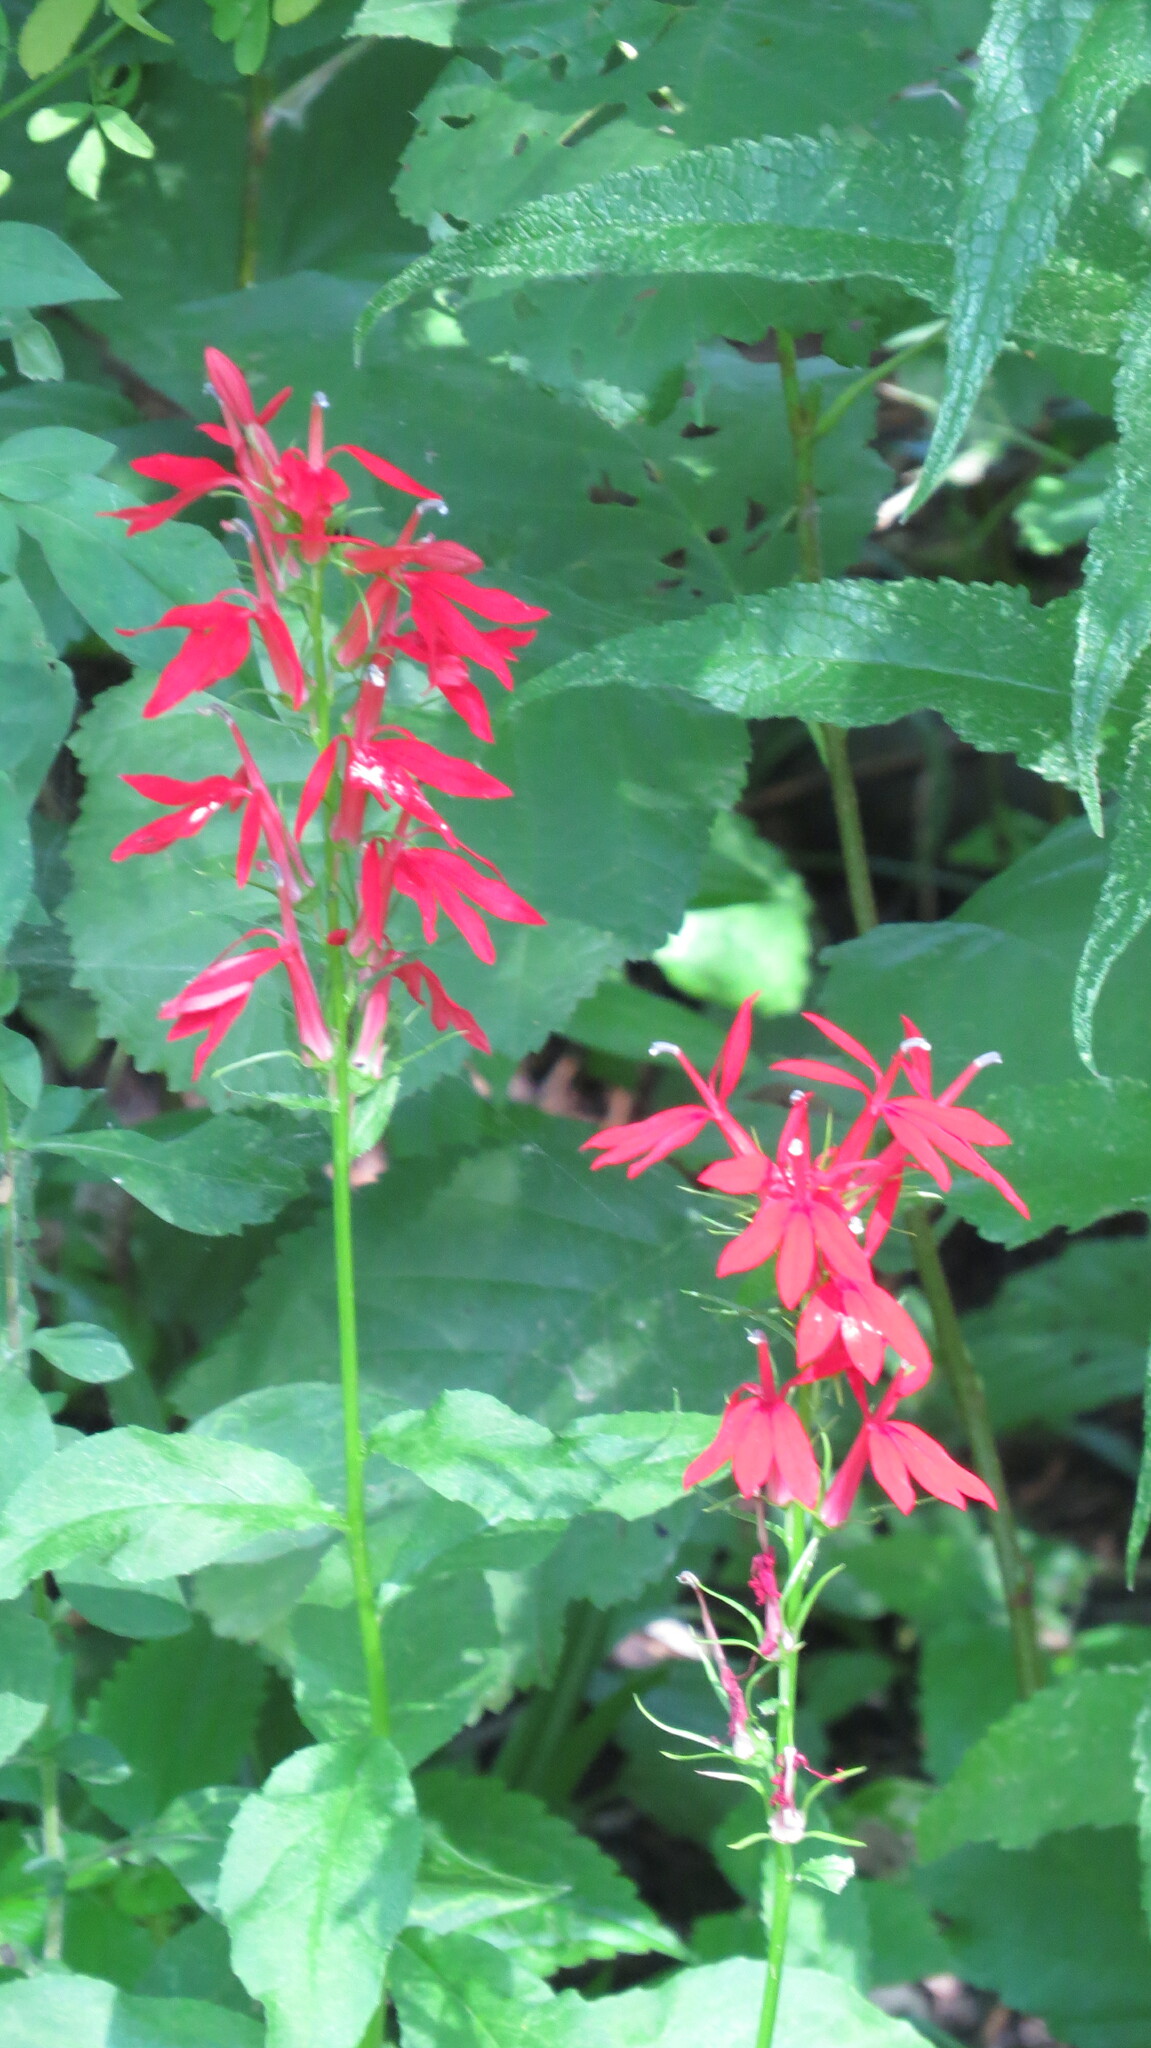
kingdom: Plantae
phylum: Tracheophyta
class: Magnoliopsida
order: Asterales
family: Campanulaceae
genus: Lobelia
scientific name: Lobelia cardinalis
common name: Cardinal flower
